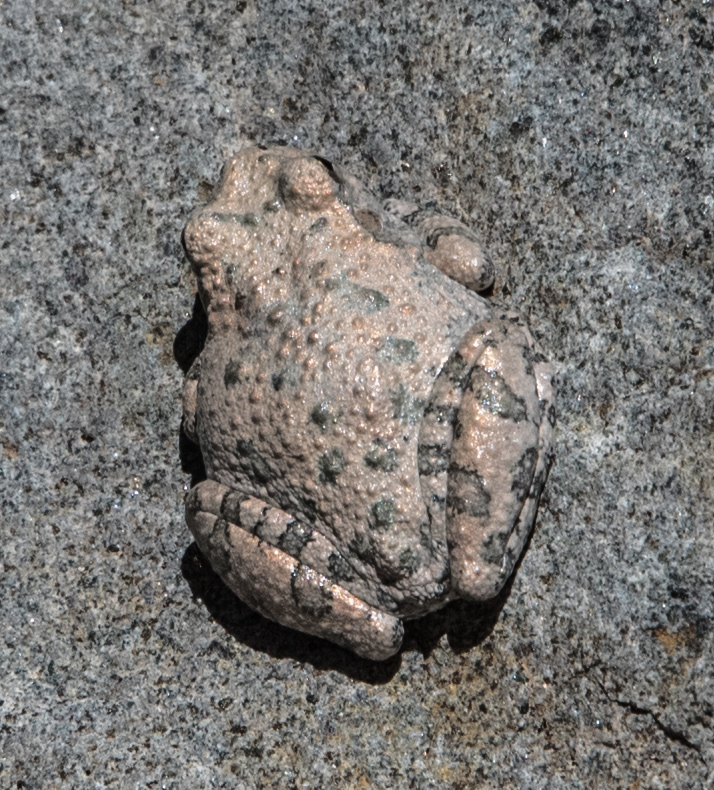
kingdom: Animalia
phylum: Chordata
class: Amphibia
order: Anura
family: Hylidae
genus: Dryophytes
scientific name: Dryophytes arenicolor
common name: Canyon treefrog
